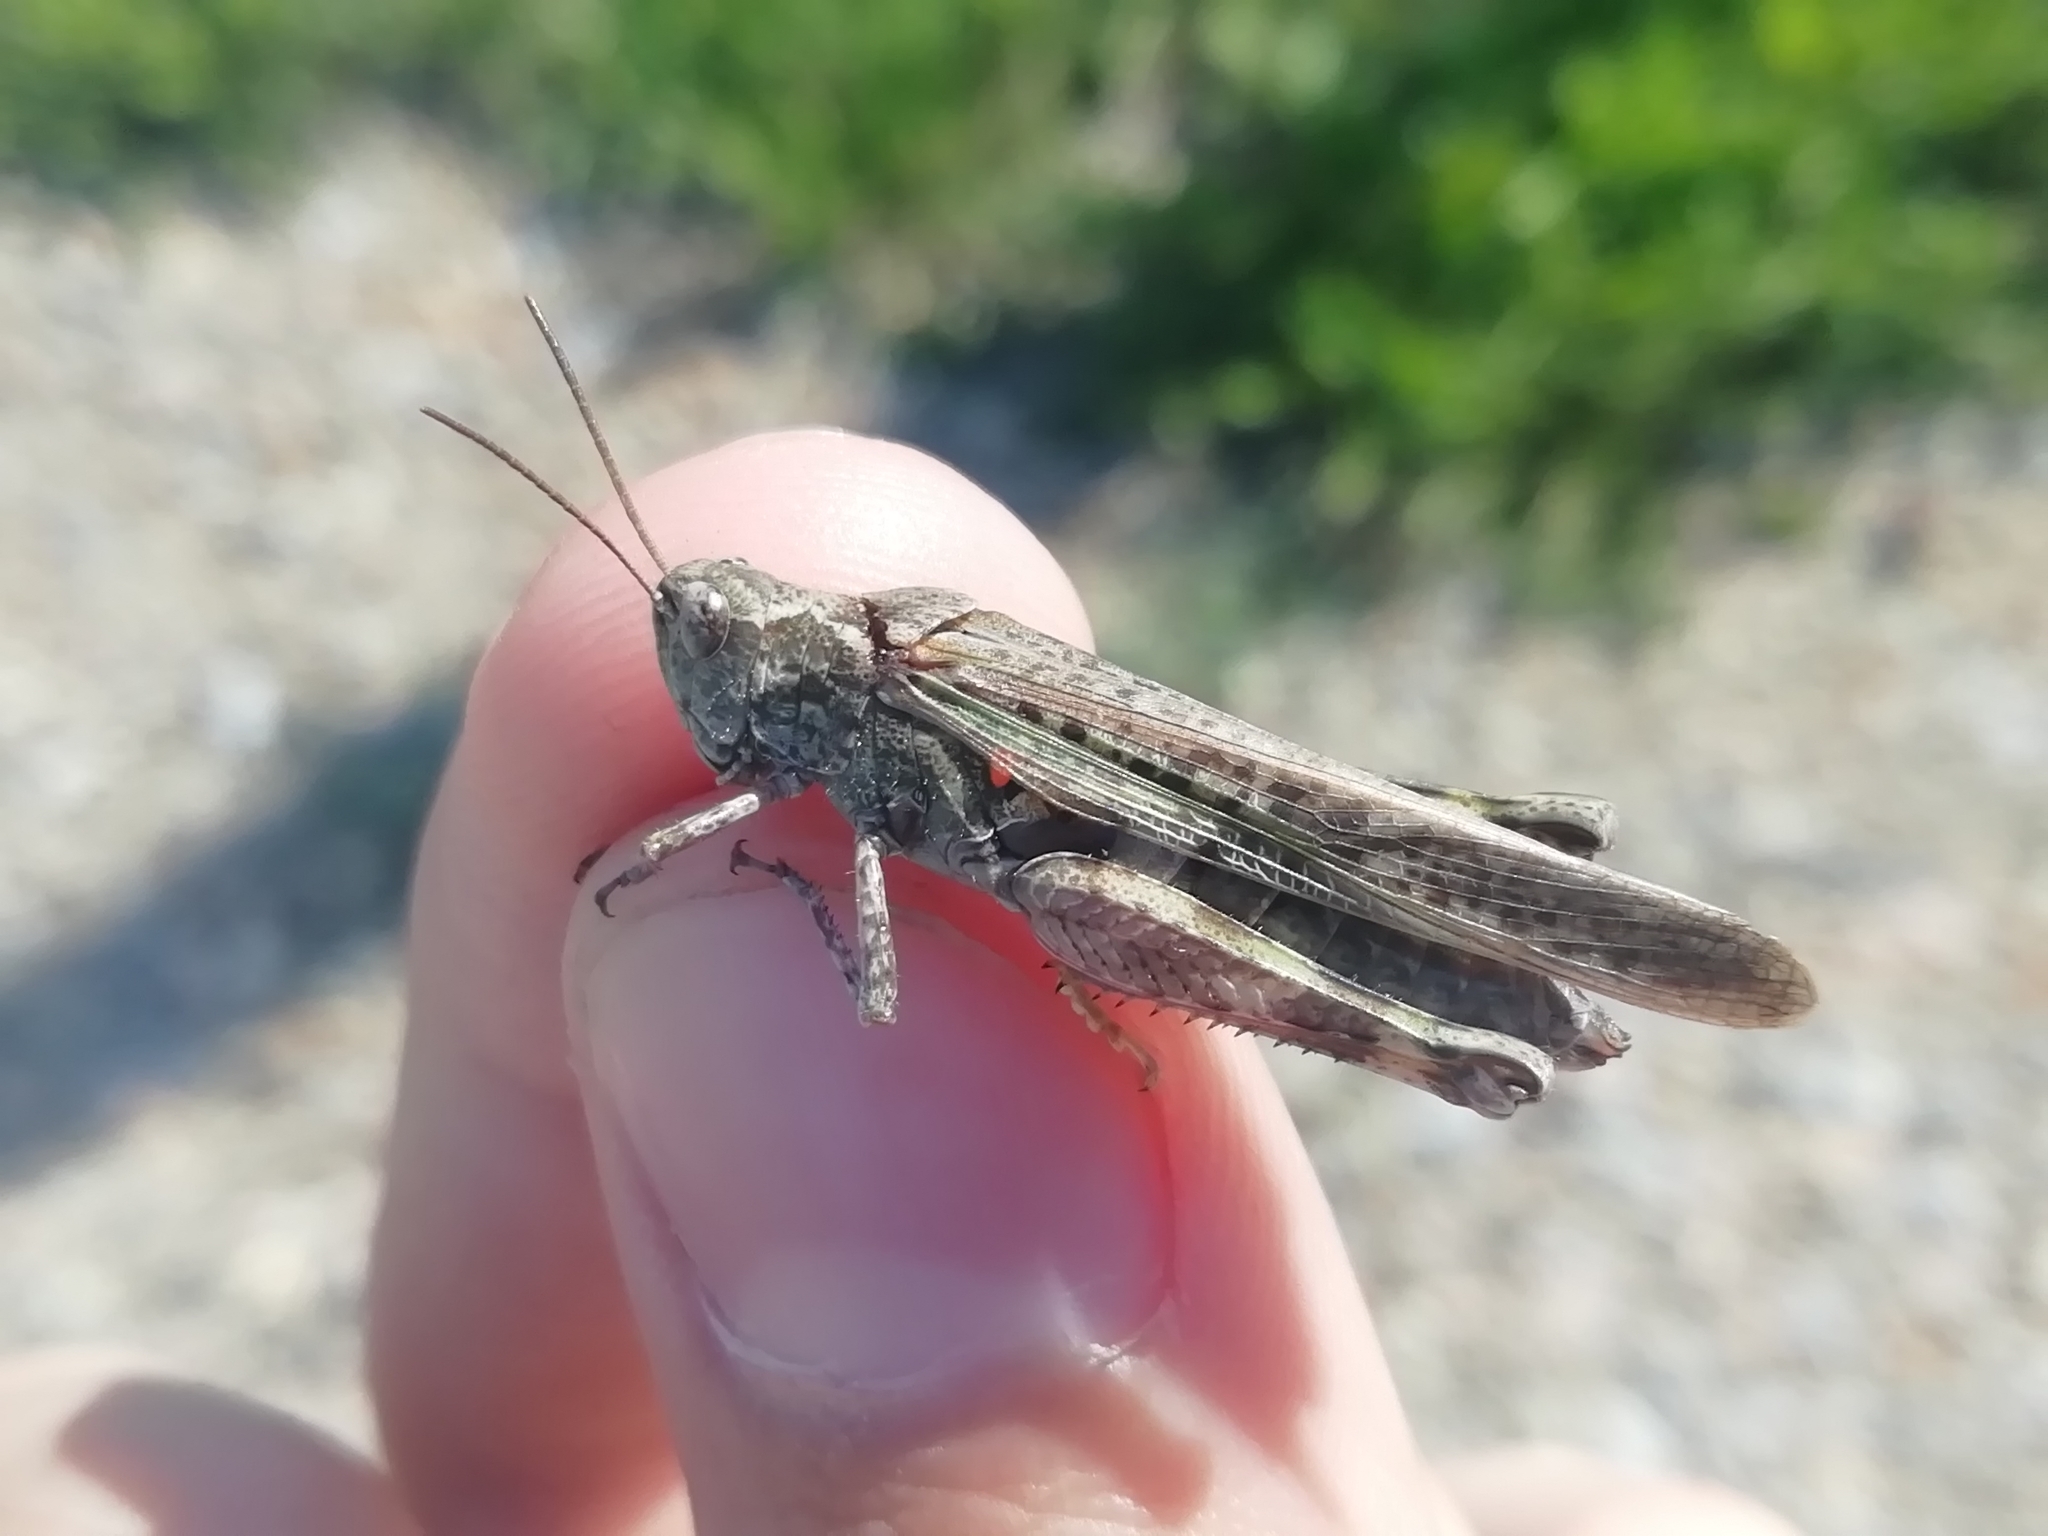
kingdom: Animalia
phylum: Arthropoda
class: Insecta
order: Orthoptera
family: Acrididae
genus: Epacromius
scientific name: Epacromius pulverulentus
